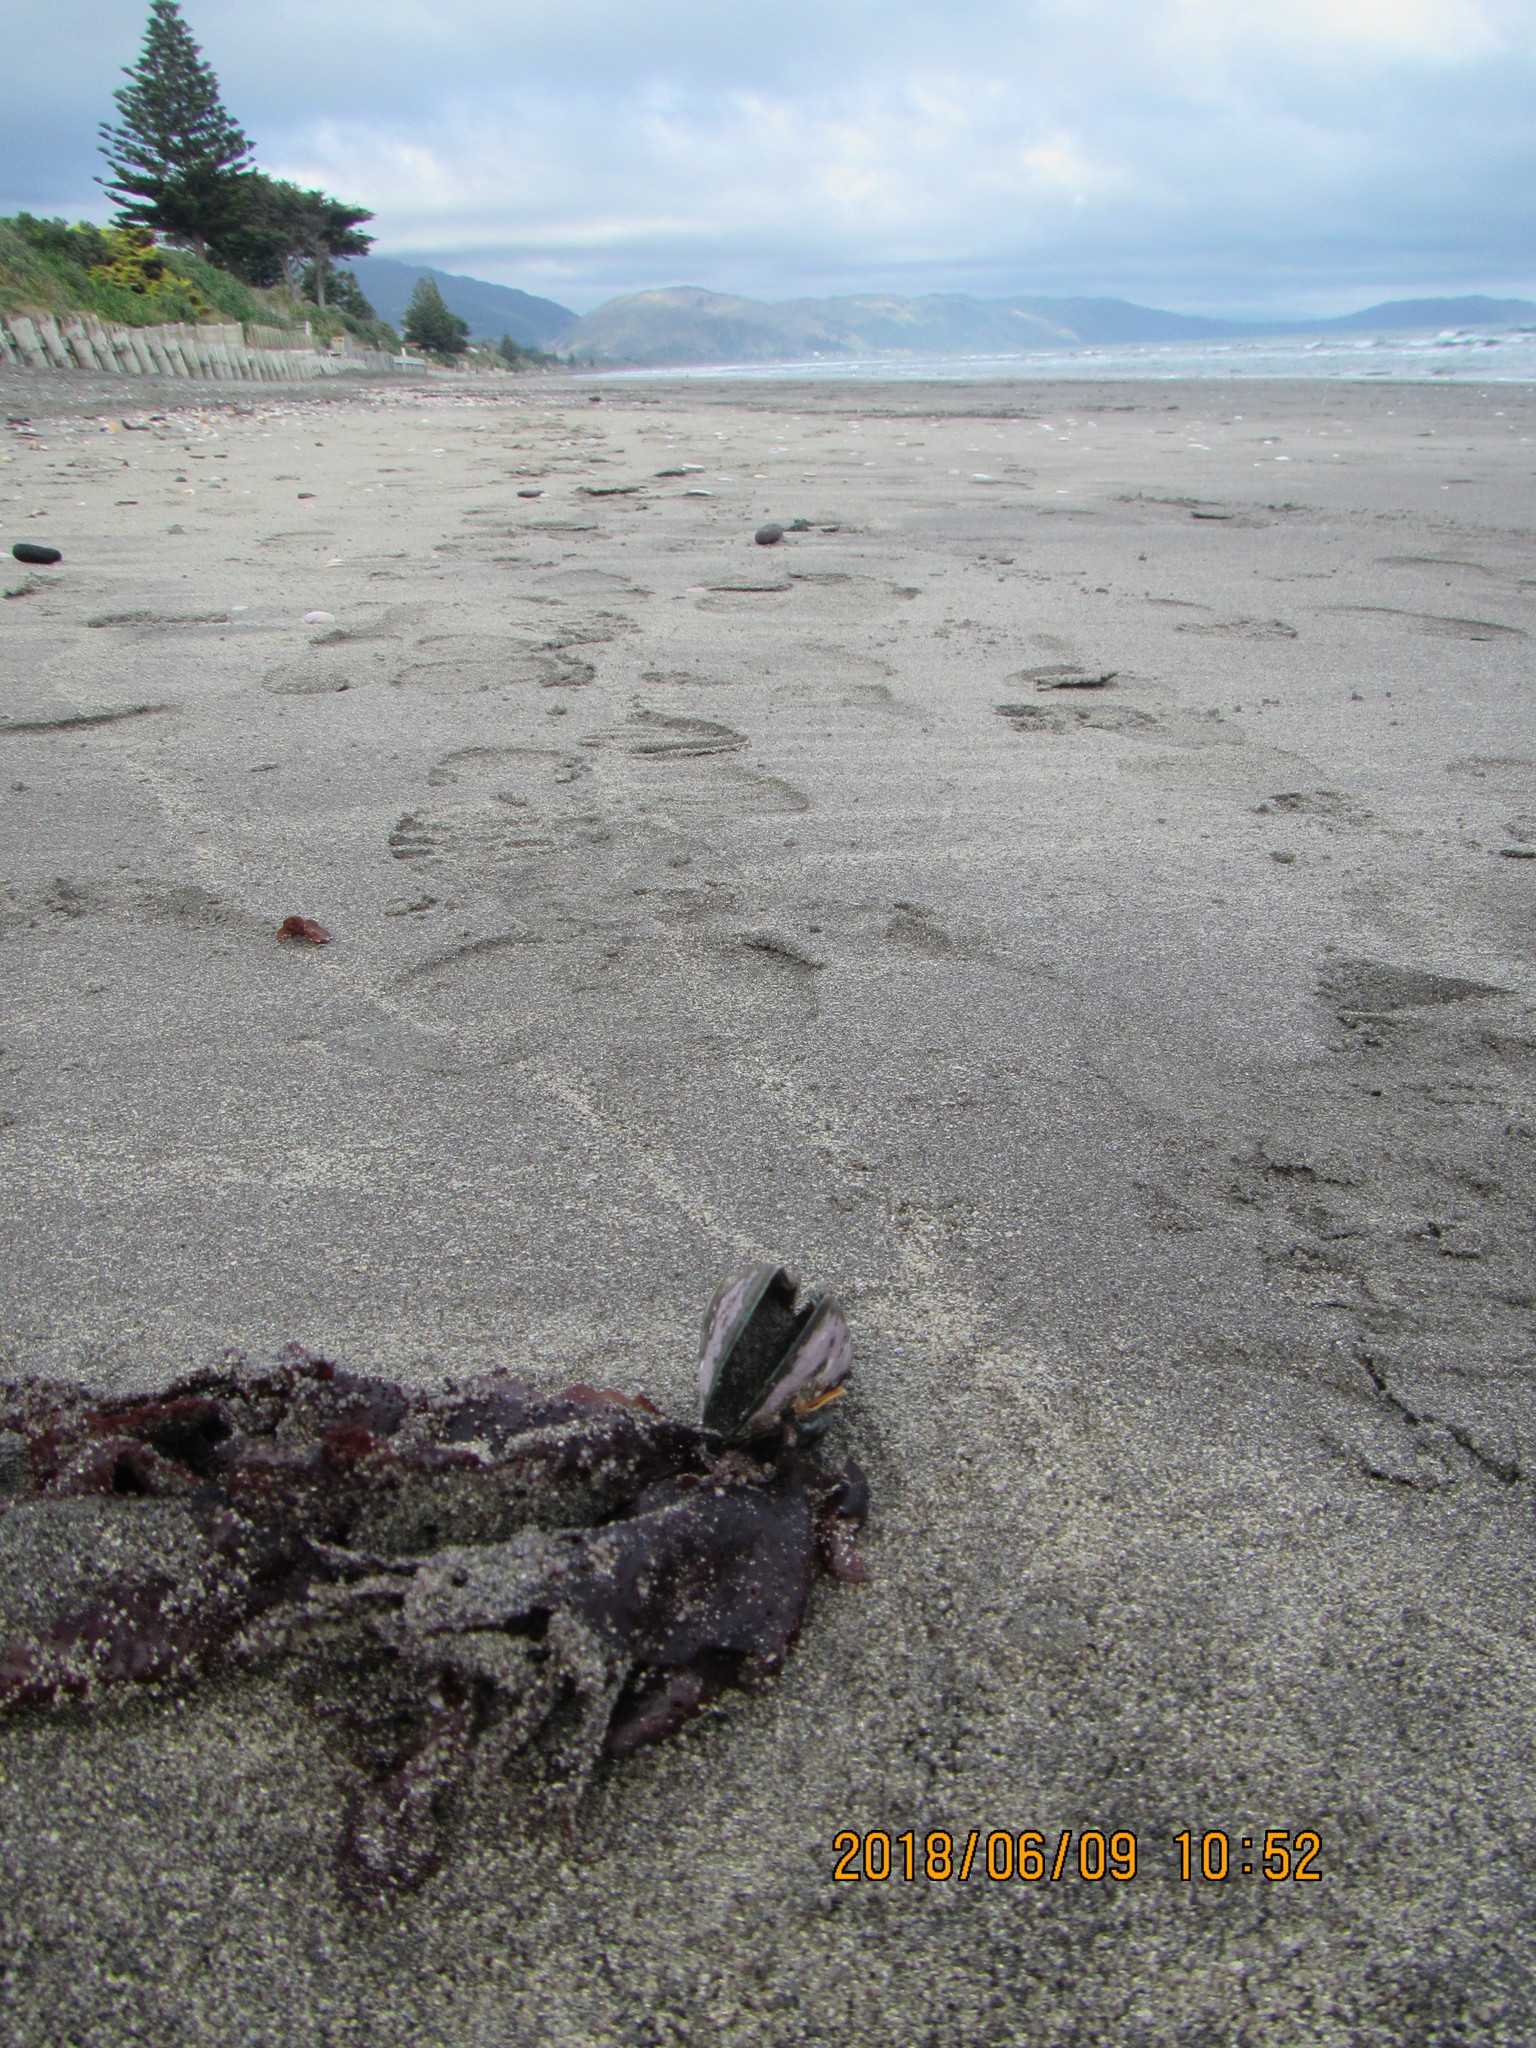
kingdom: Animalia
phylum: Mollusca
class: Bivalvia
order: Mytilida
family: Mytilidae
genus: Perna
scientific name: Perna canaliculus
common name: New zealand greenshelltm
